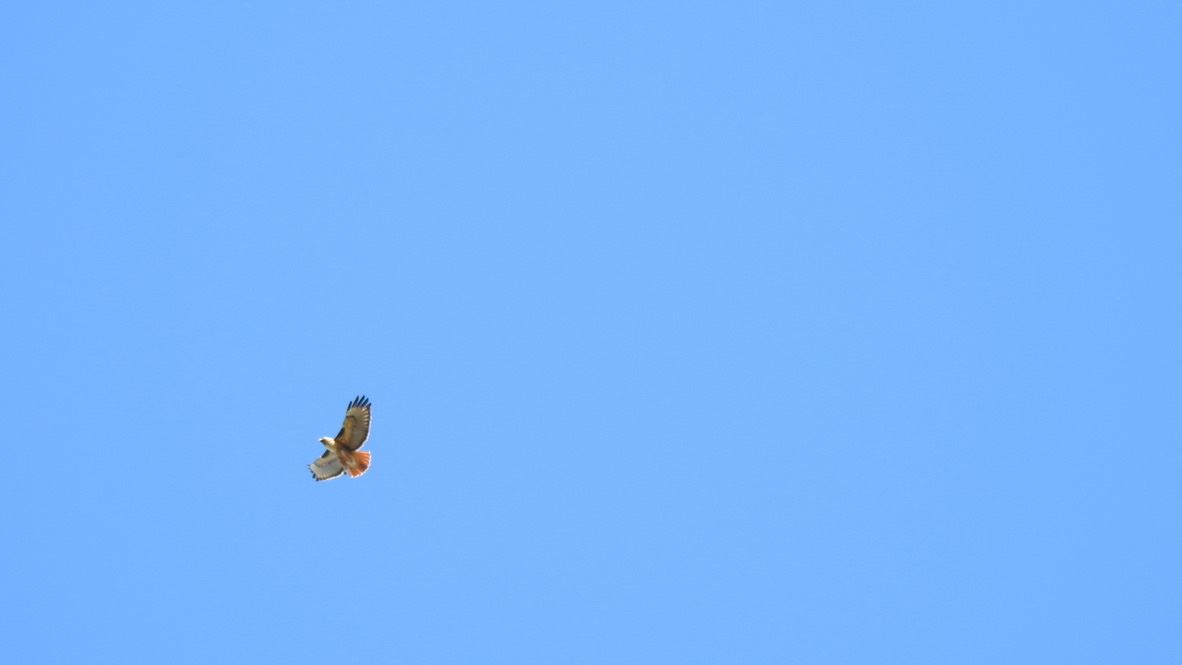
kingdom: Animalia
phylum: Chordata
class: Aves
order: Accipitriformes
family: Accipitridae
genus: Buteo
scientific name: Buteo jamaicensis
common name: Red-tailed hawk
